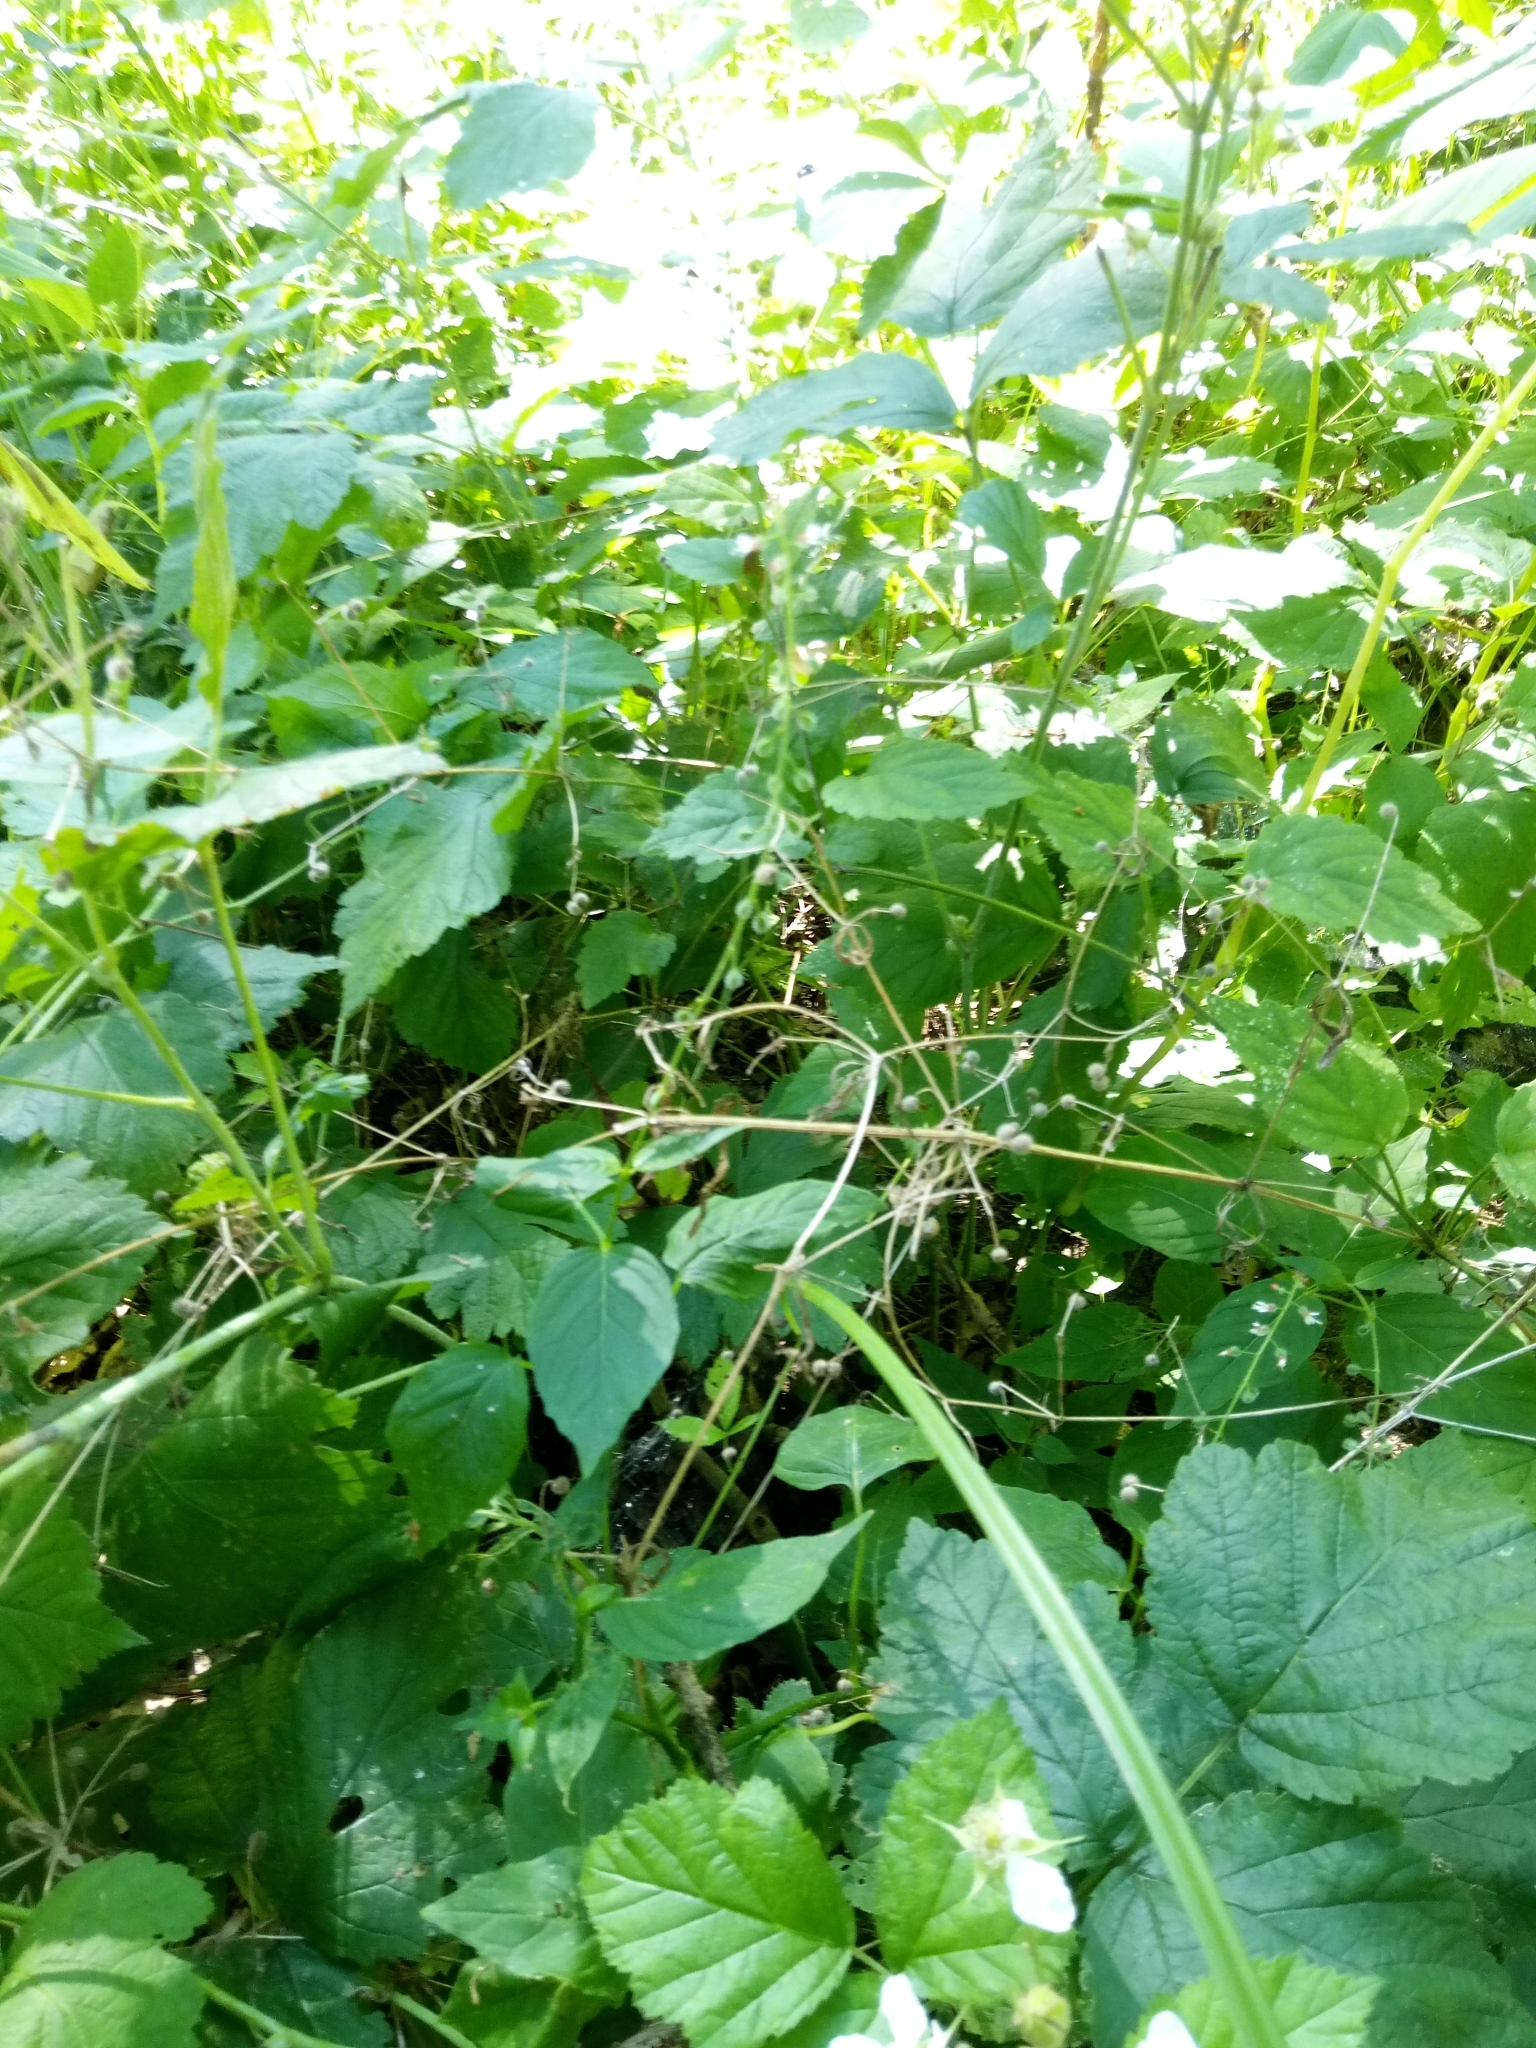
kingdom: Plantae
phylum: Tracheophyta
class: Magnoliopsida
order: Myrtales
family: Onagraceae
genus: Circaea
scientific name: Circaea lutetiana
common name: Enchanter's-nightshade
